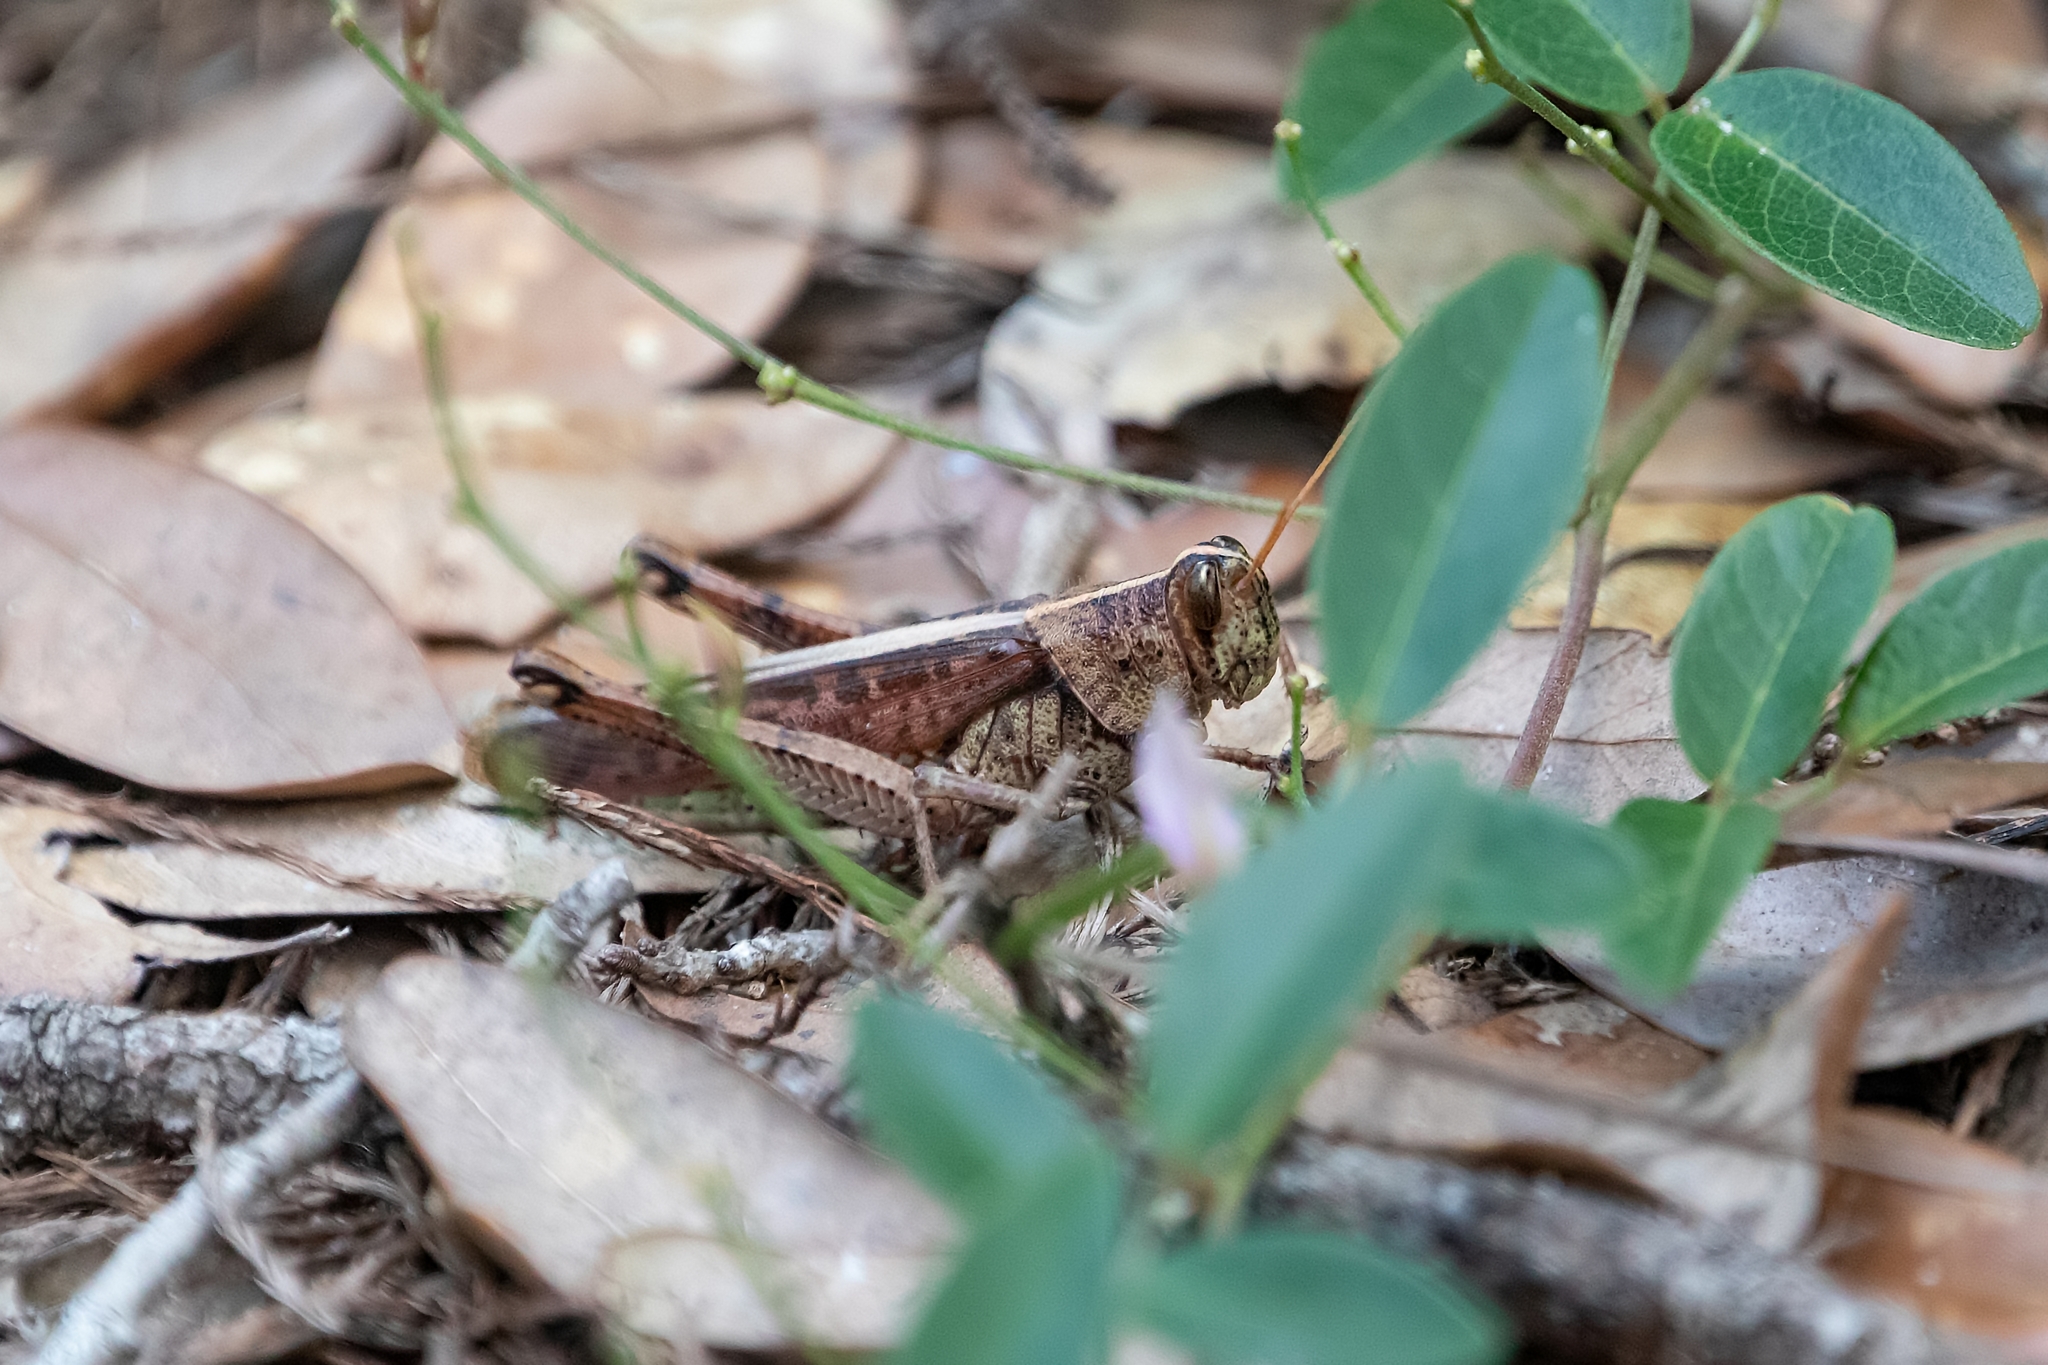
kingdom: Animalia
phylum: Arthropoda
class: Insecta
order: Orthoptera
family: Acrididae
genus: Schistocerca
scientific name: Schistocerca alutacea
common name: Leather-colored bird locust
